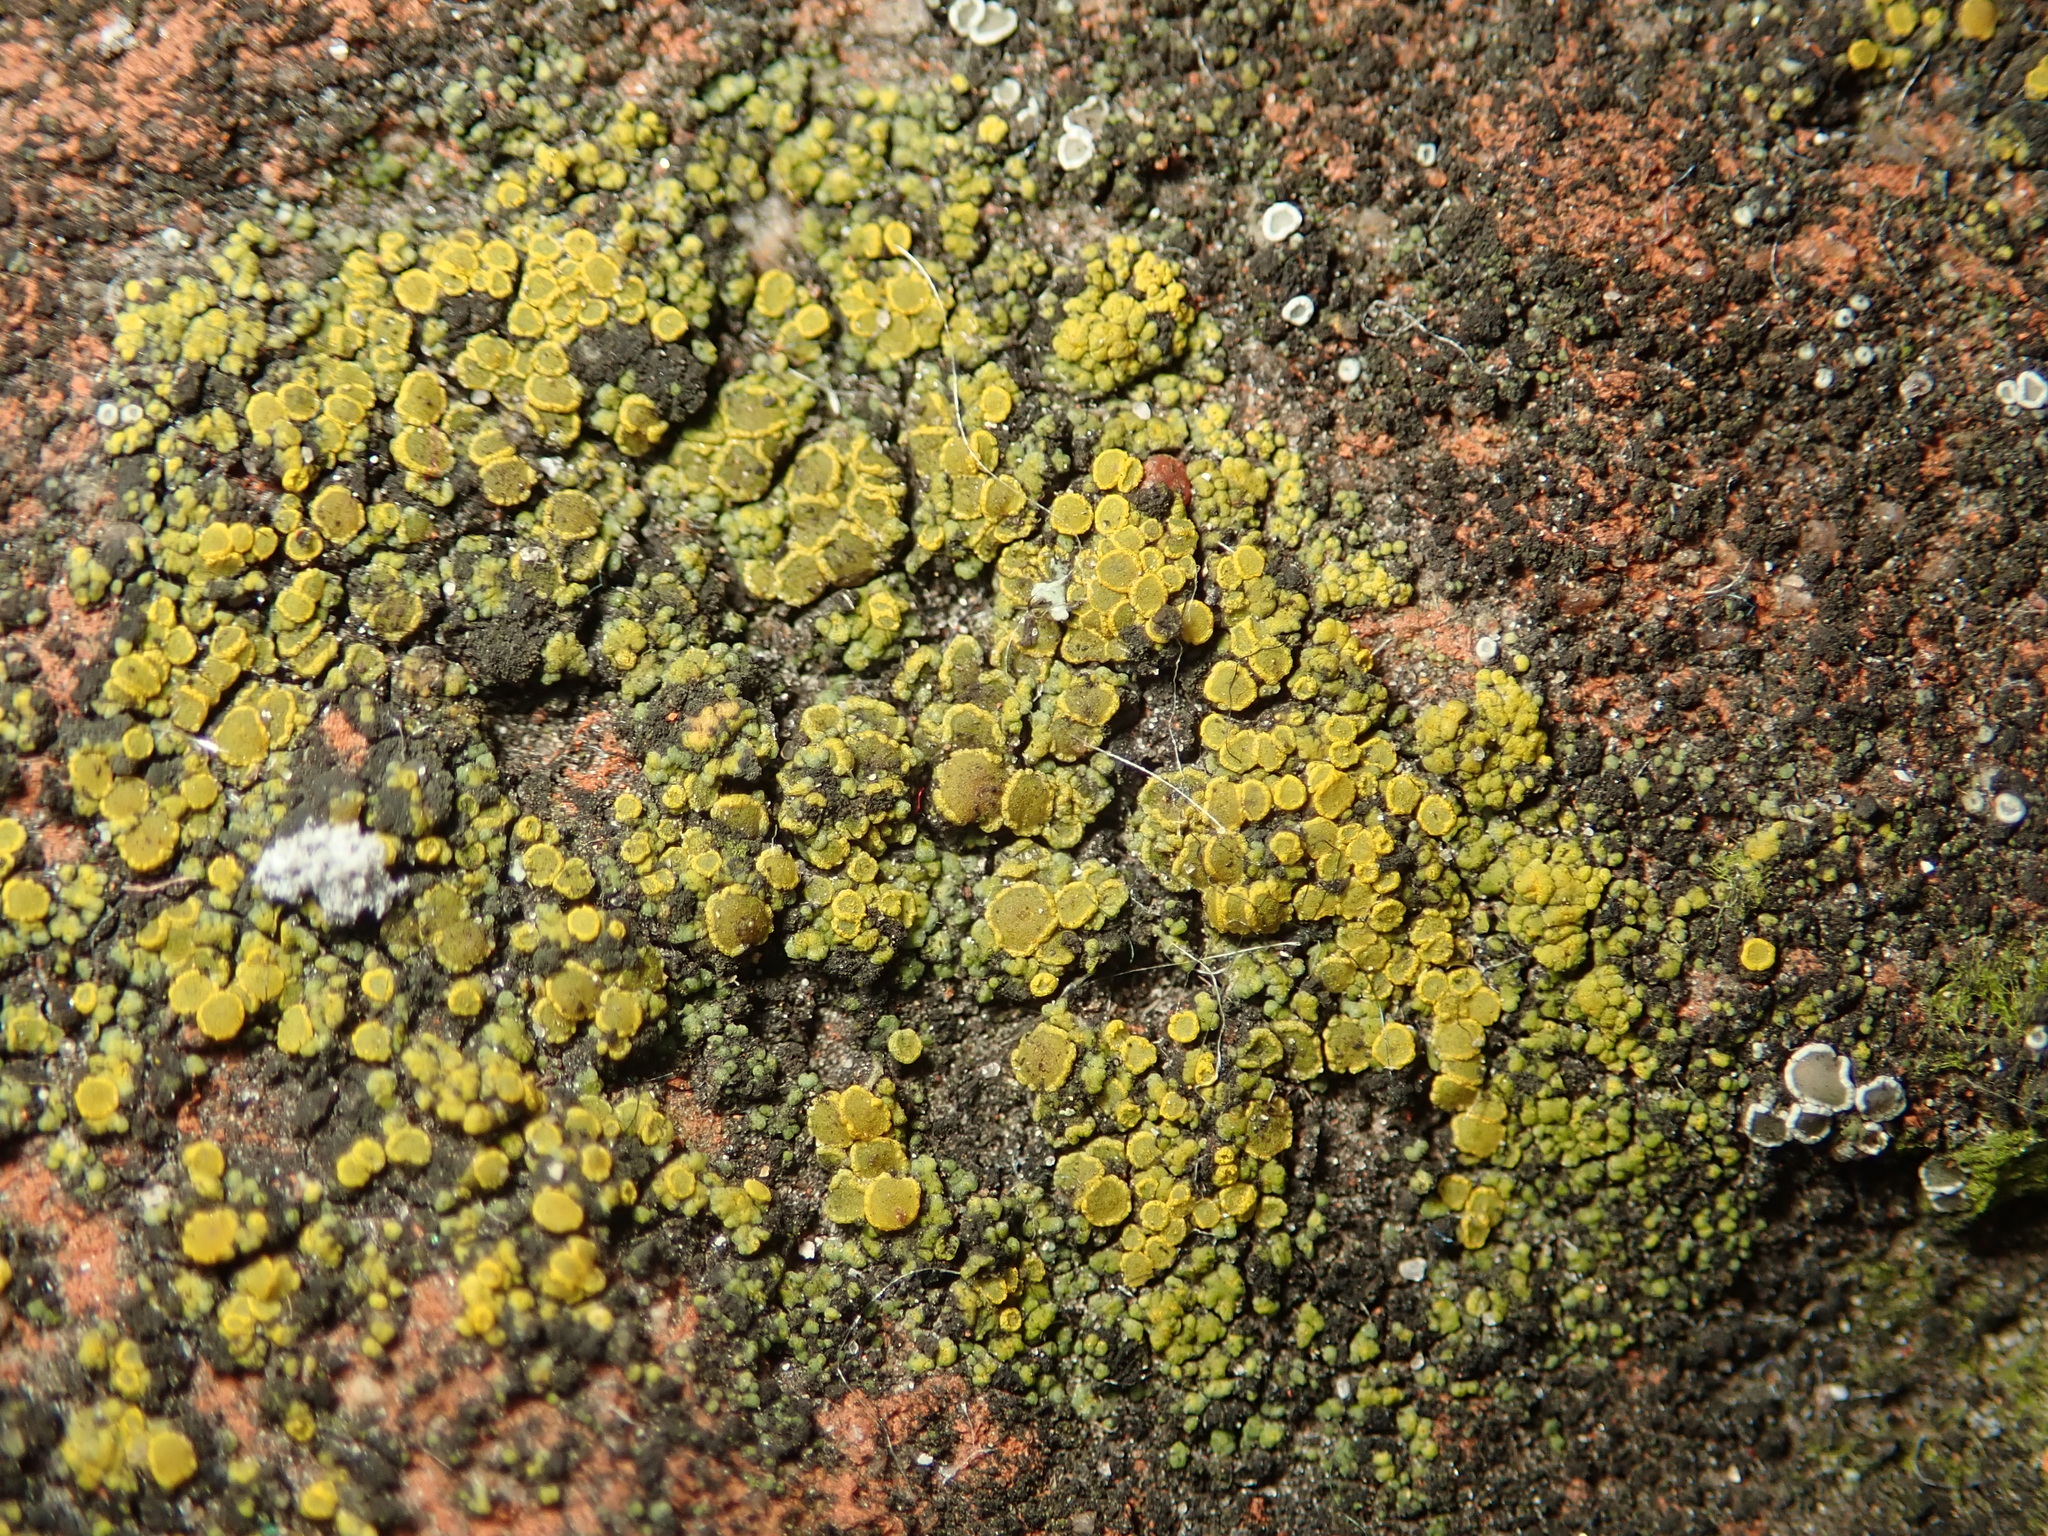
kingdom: Fungi
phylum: Ascomycota
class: Candelariomycetes
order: Candelariales
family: Candelariaceae
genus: Candelariella
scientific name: Candelariella vitellina
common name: Common goldspeck
